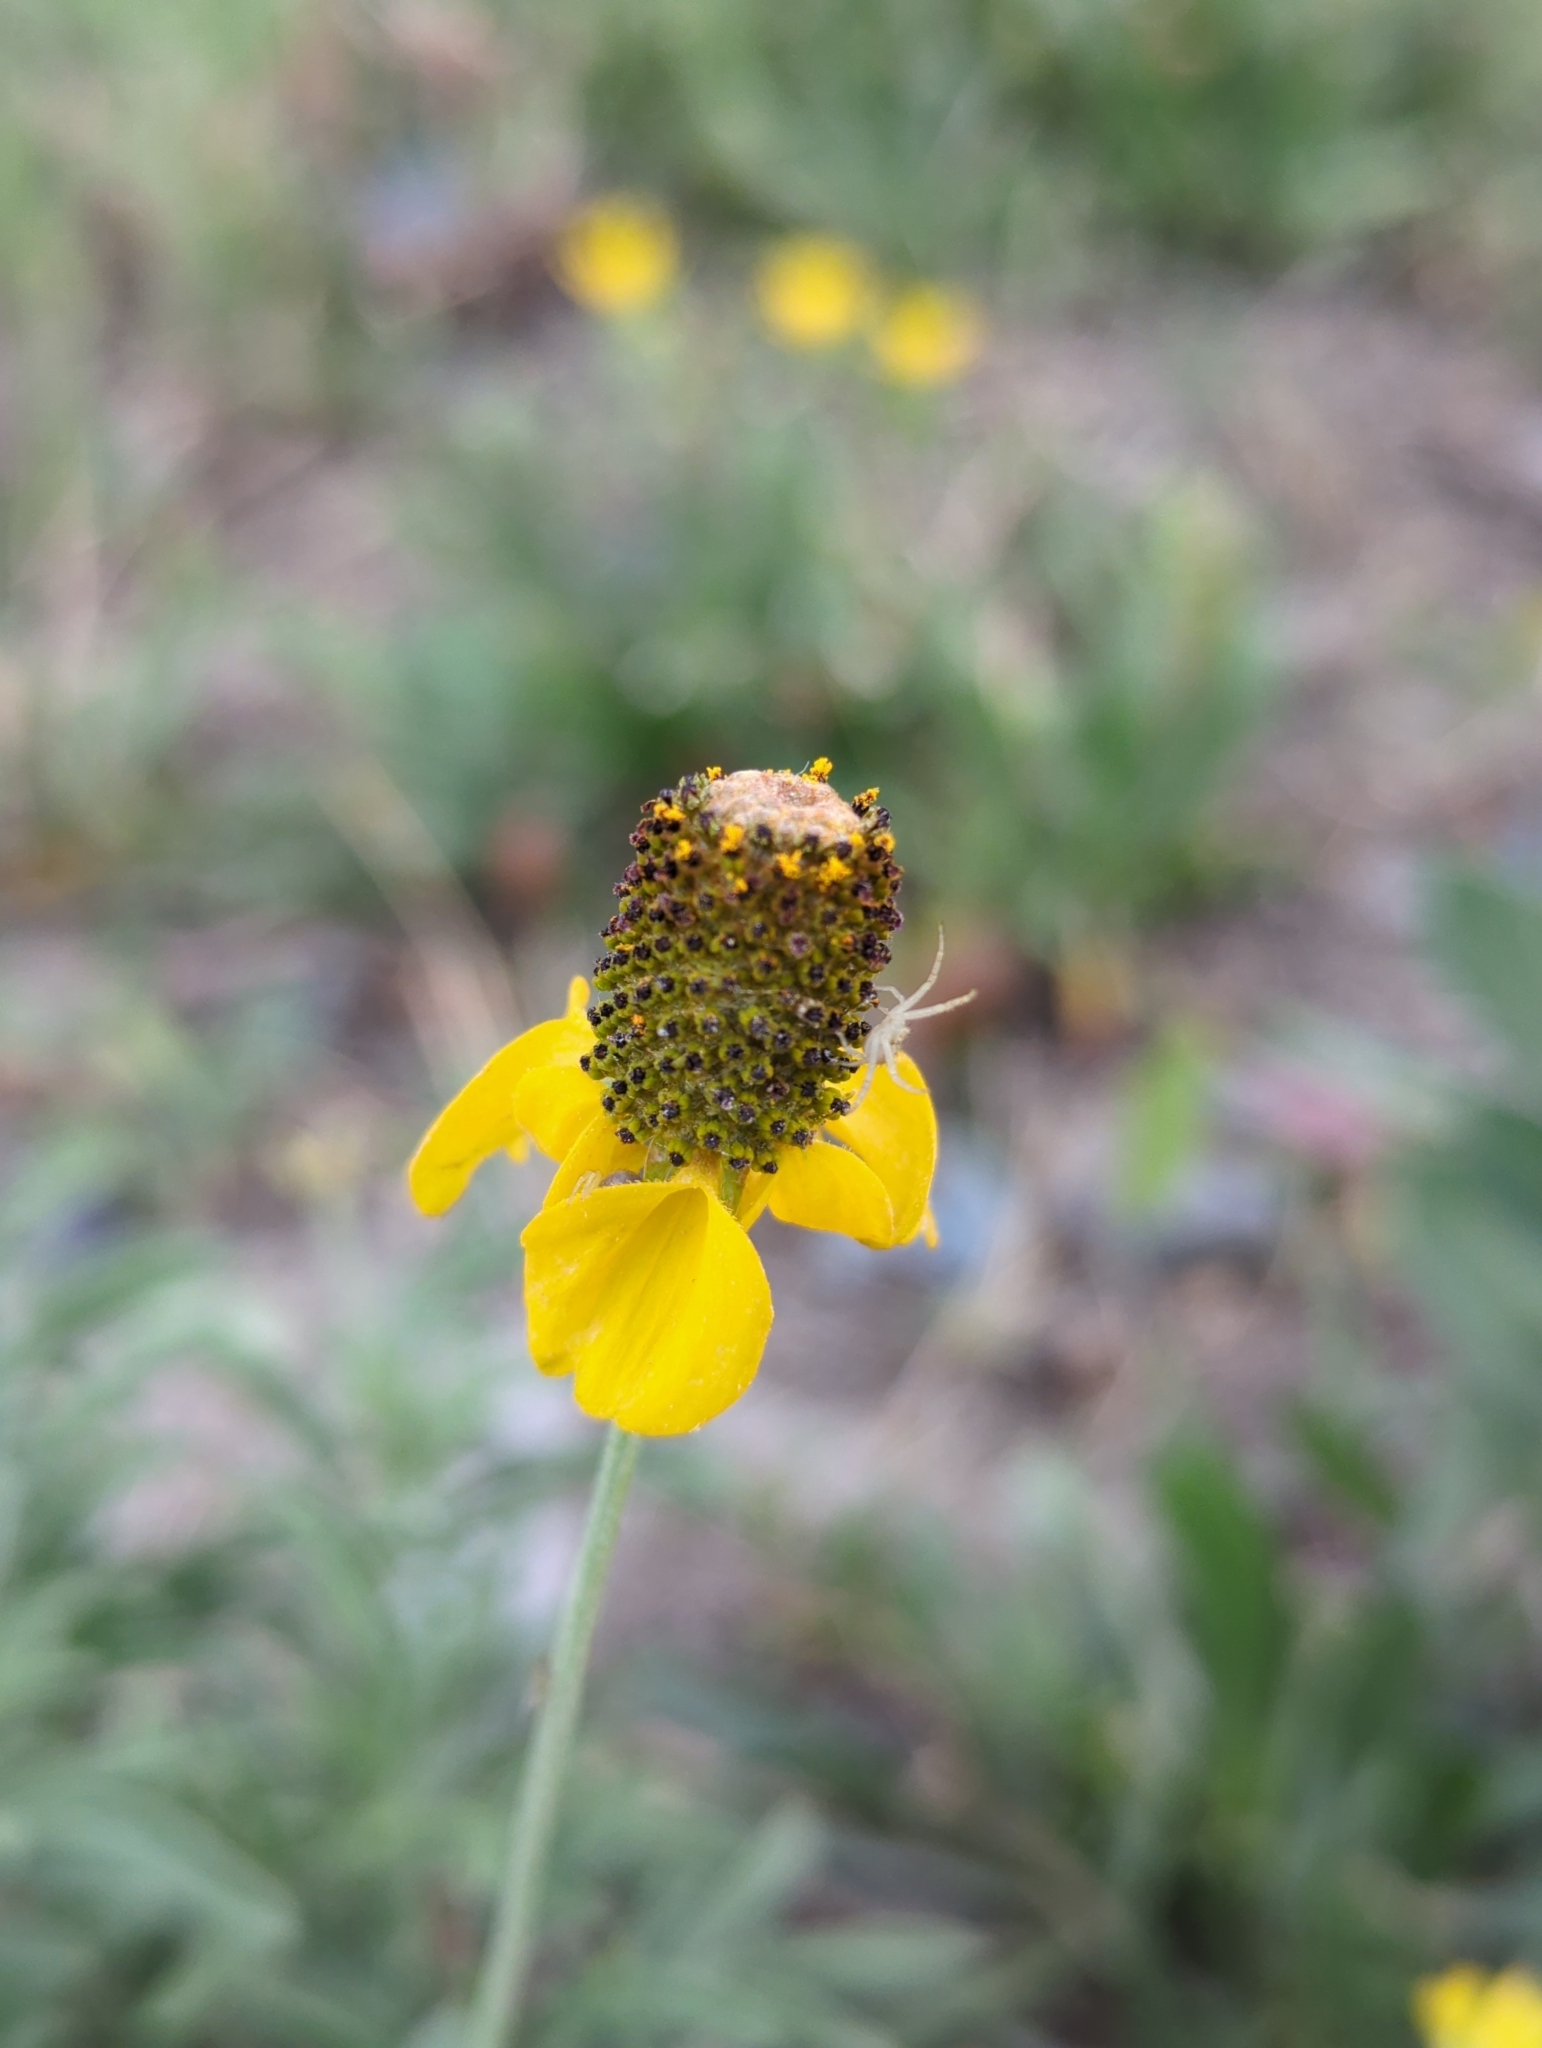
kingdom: Plantae
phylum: Tracheophyta
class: Magnoliopsida
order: Asterales
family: Asteraceae
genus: Ratibida
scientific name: Ratibida columnifera
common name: Prairie coneflower
